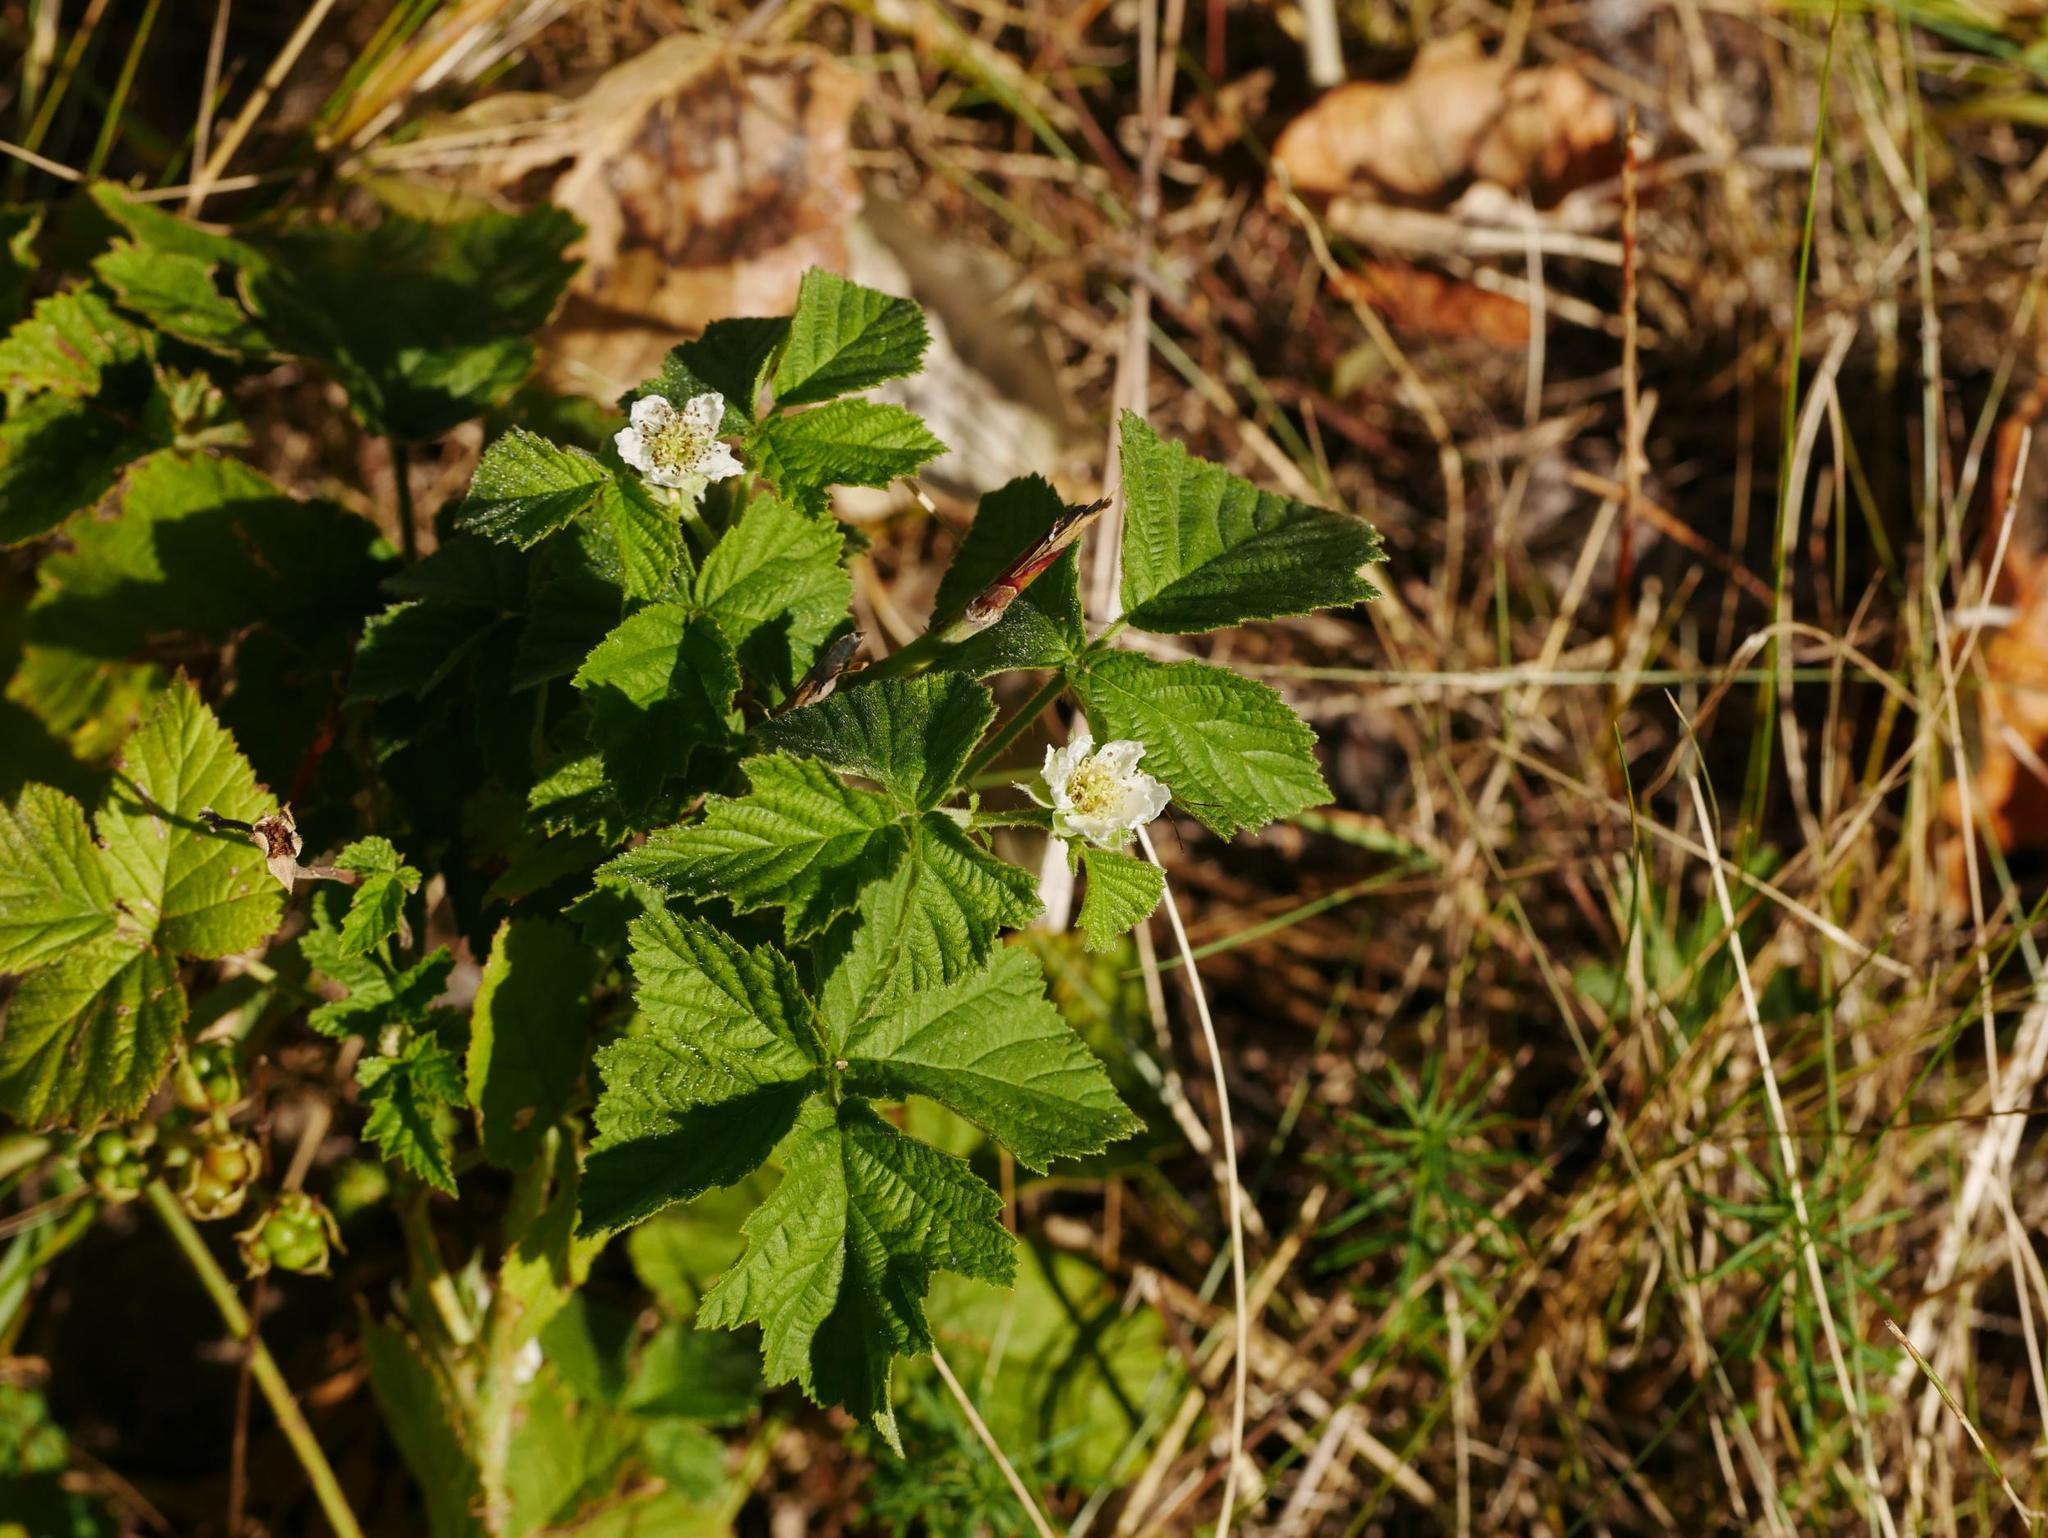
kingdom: Plantae
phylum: Tracheophyta
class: Magnoliopsida
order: Rosales
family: Rosaceae
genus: Rubus
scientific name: Rubus caesius
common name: Dewberry
